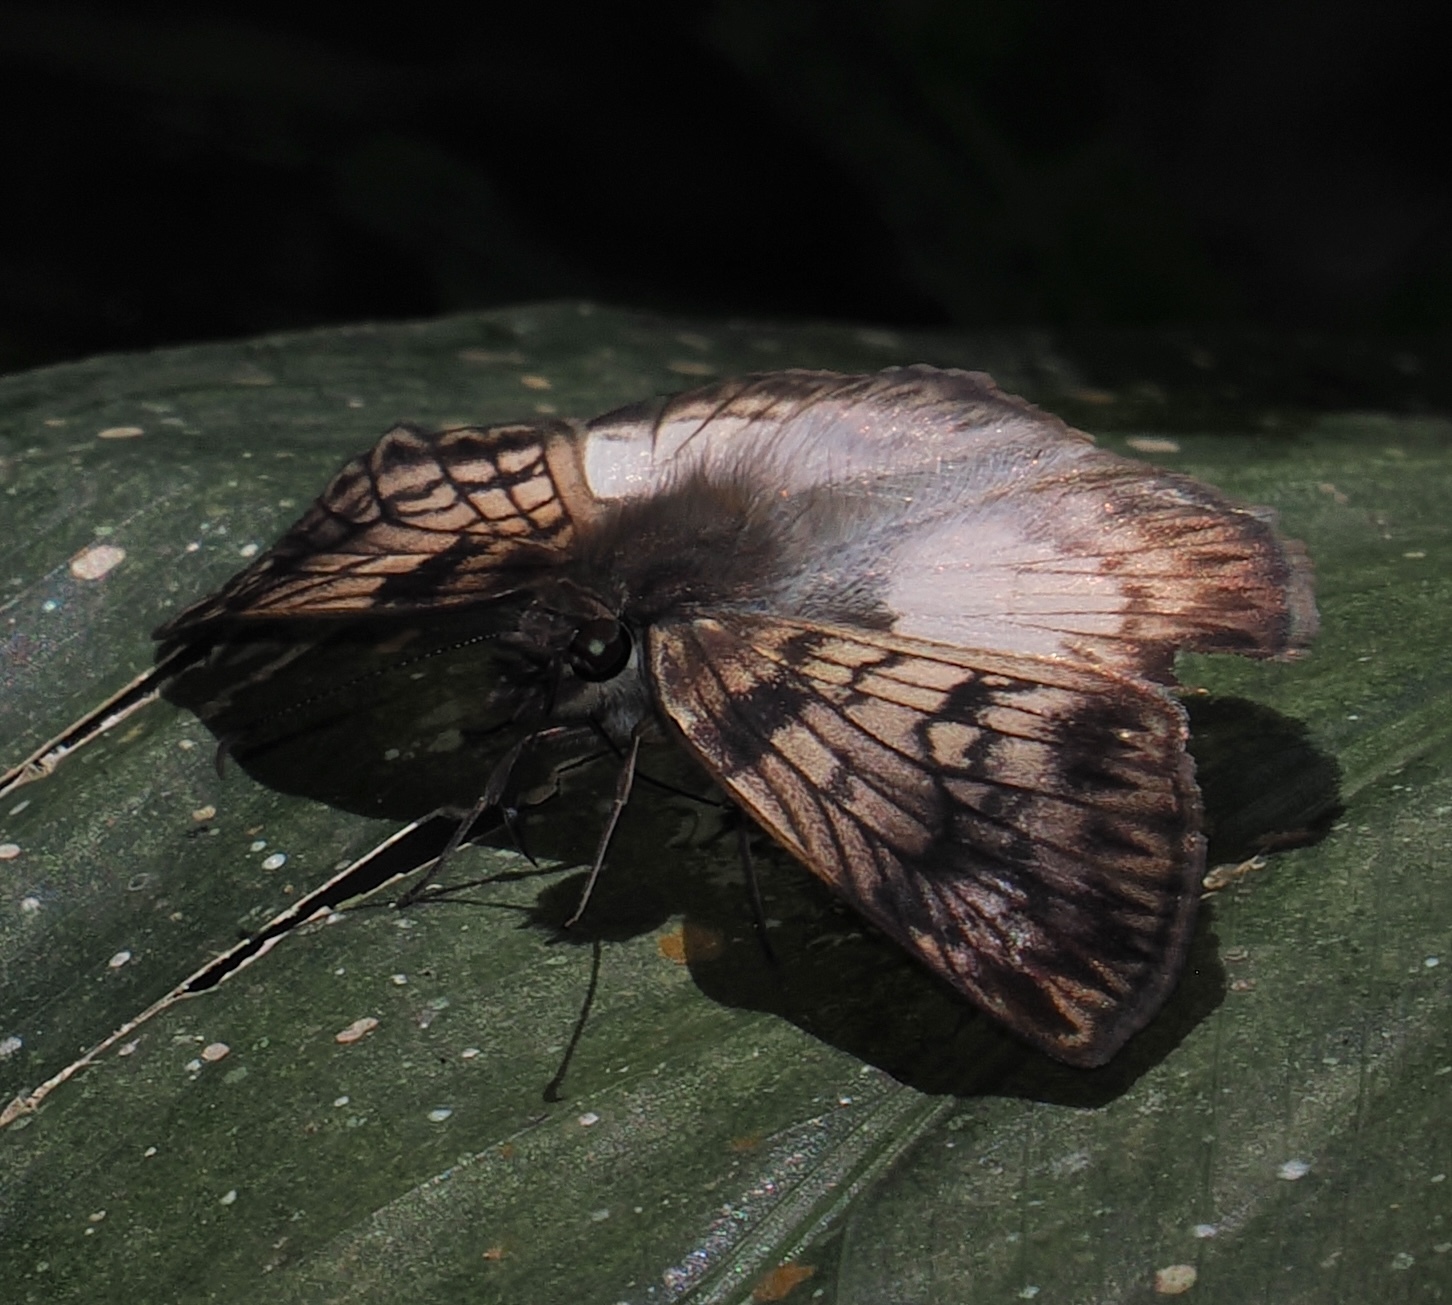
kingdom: Animalia
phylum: Arthropoda
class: Insecta
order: Lepidoptera
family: Hesperiidae
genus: Mylon
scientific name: Mylon maimon
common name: Common mylon
